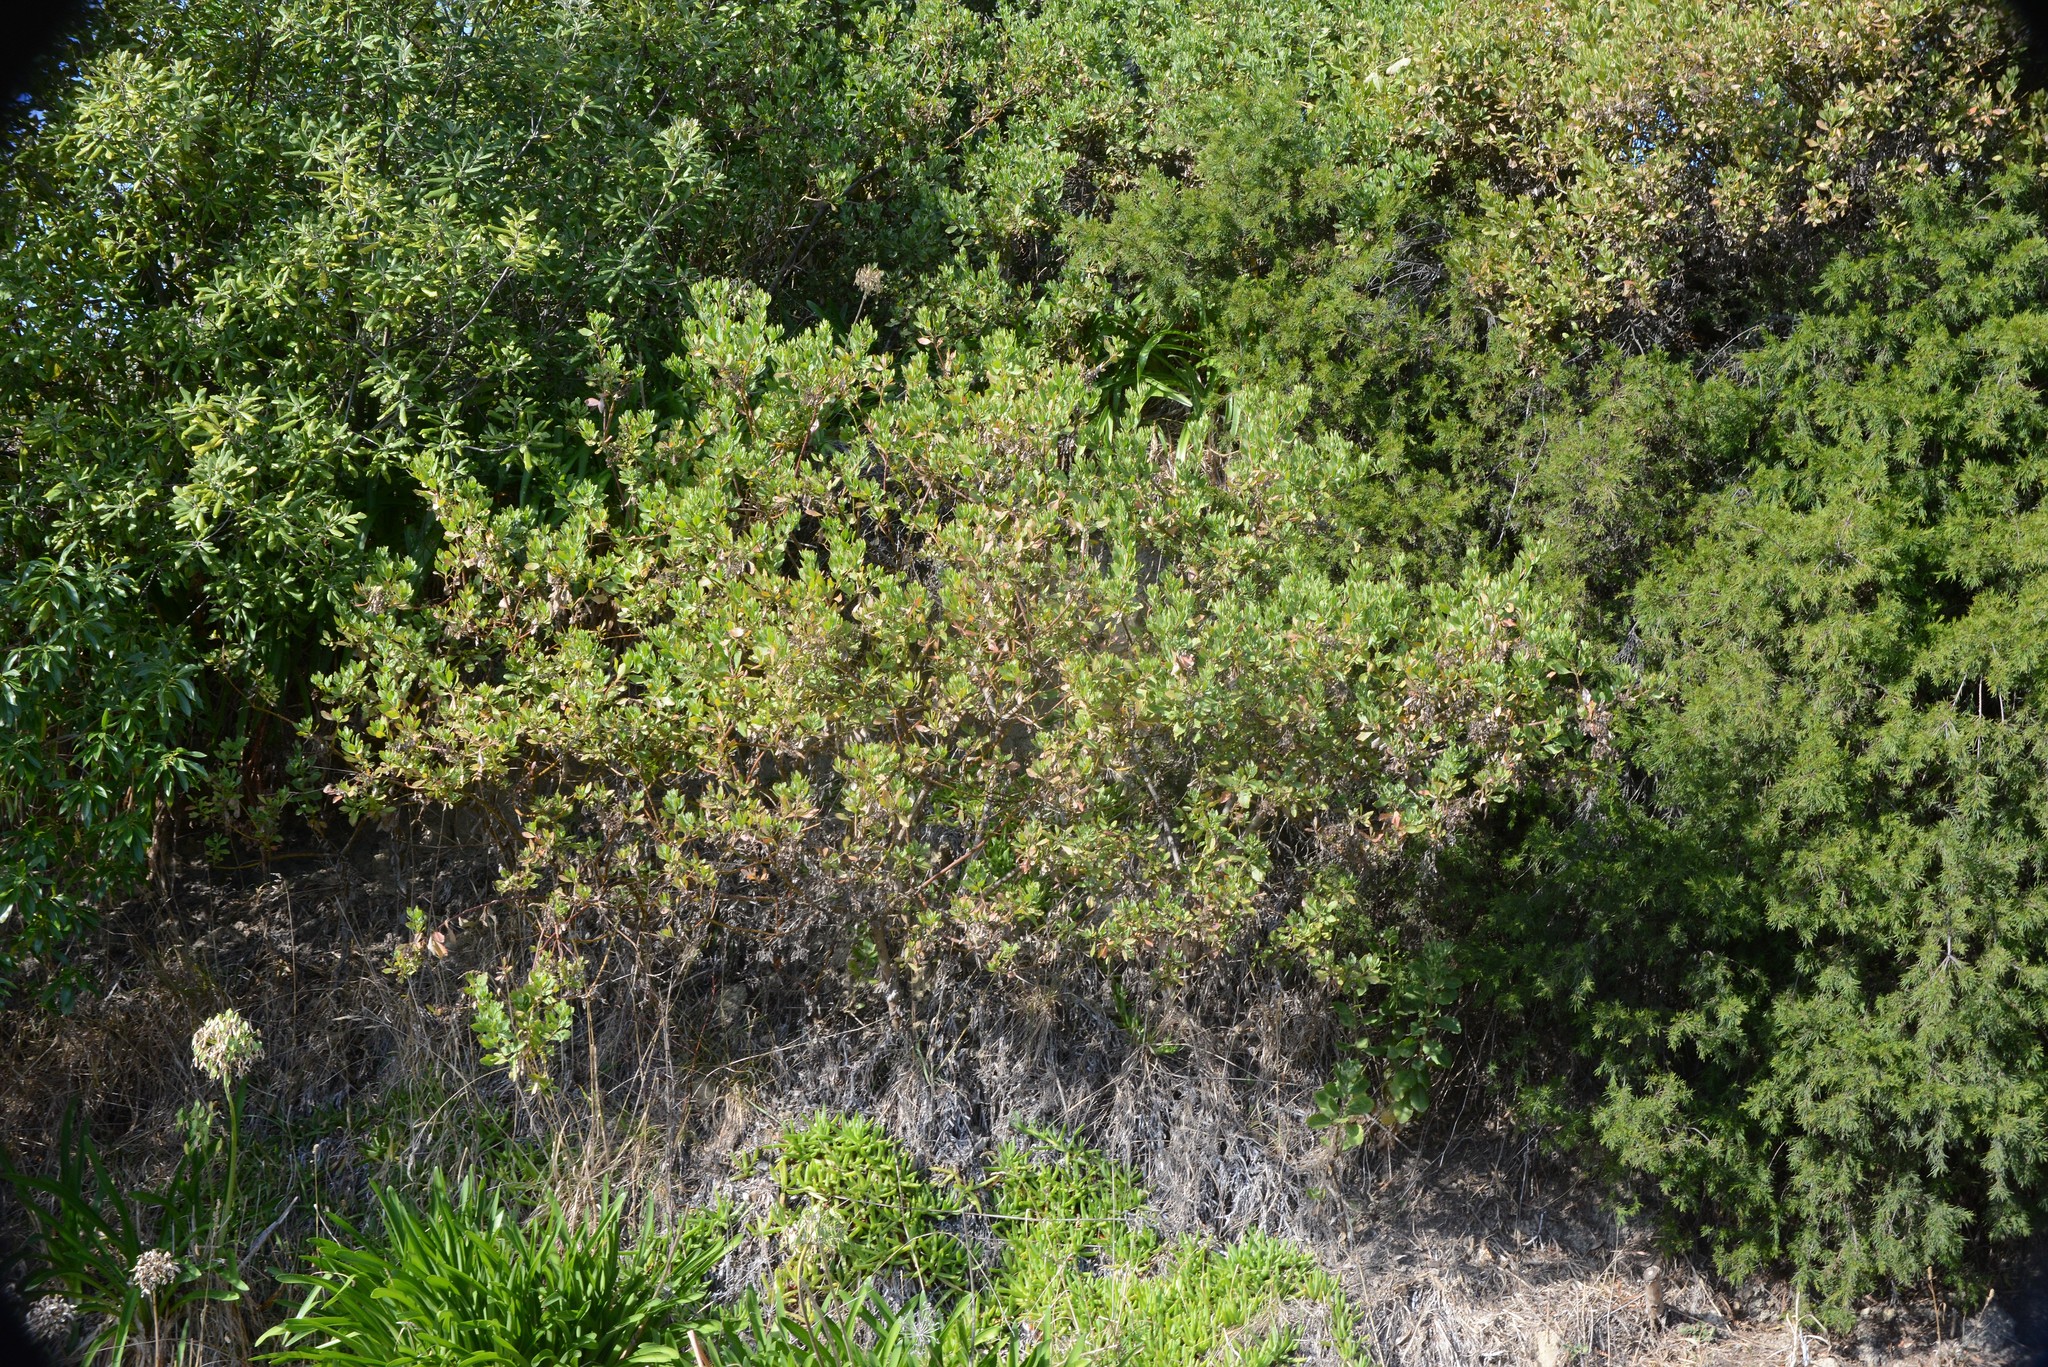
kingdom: Plantae
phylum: Tracheophyta
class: Magnoliopsida
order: Asterales
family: Asteraceae
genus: Osteospermum
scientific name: Osteospermum moniliferum
